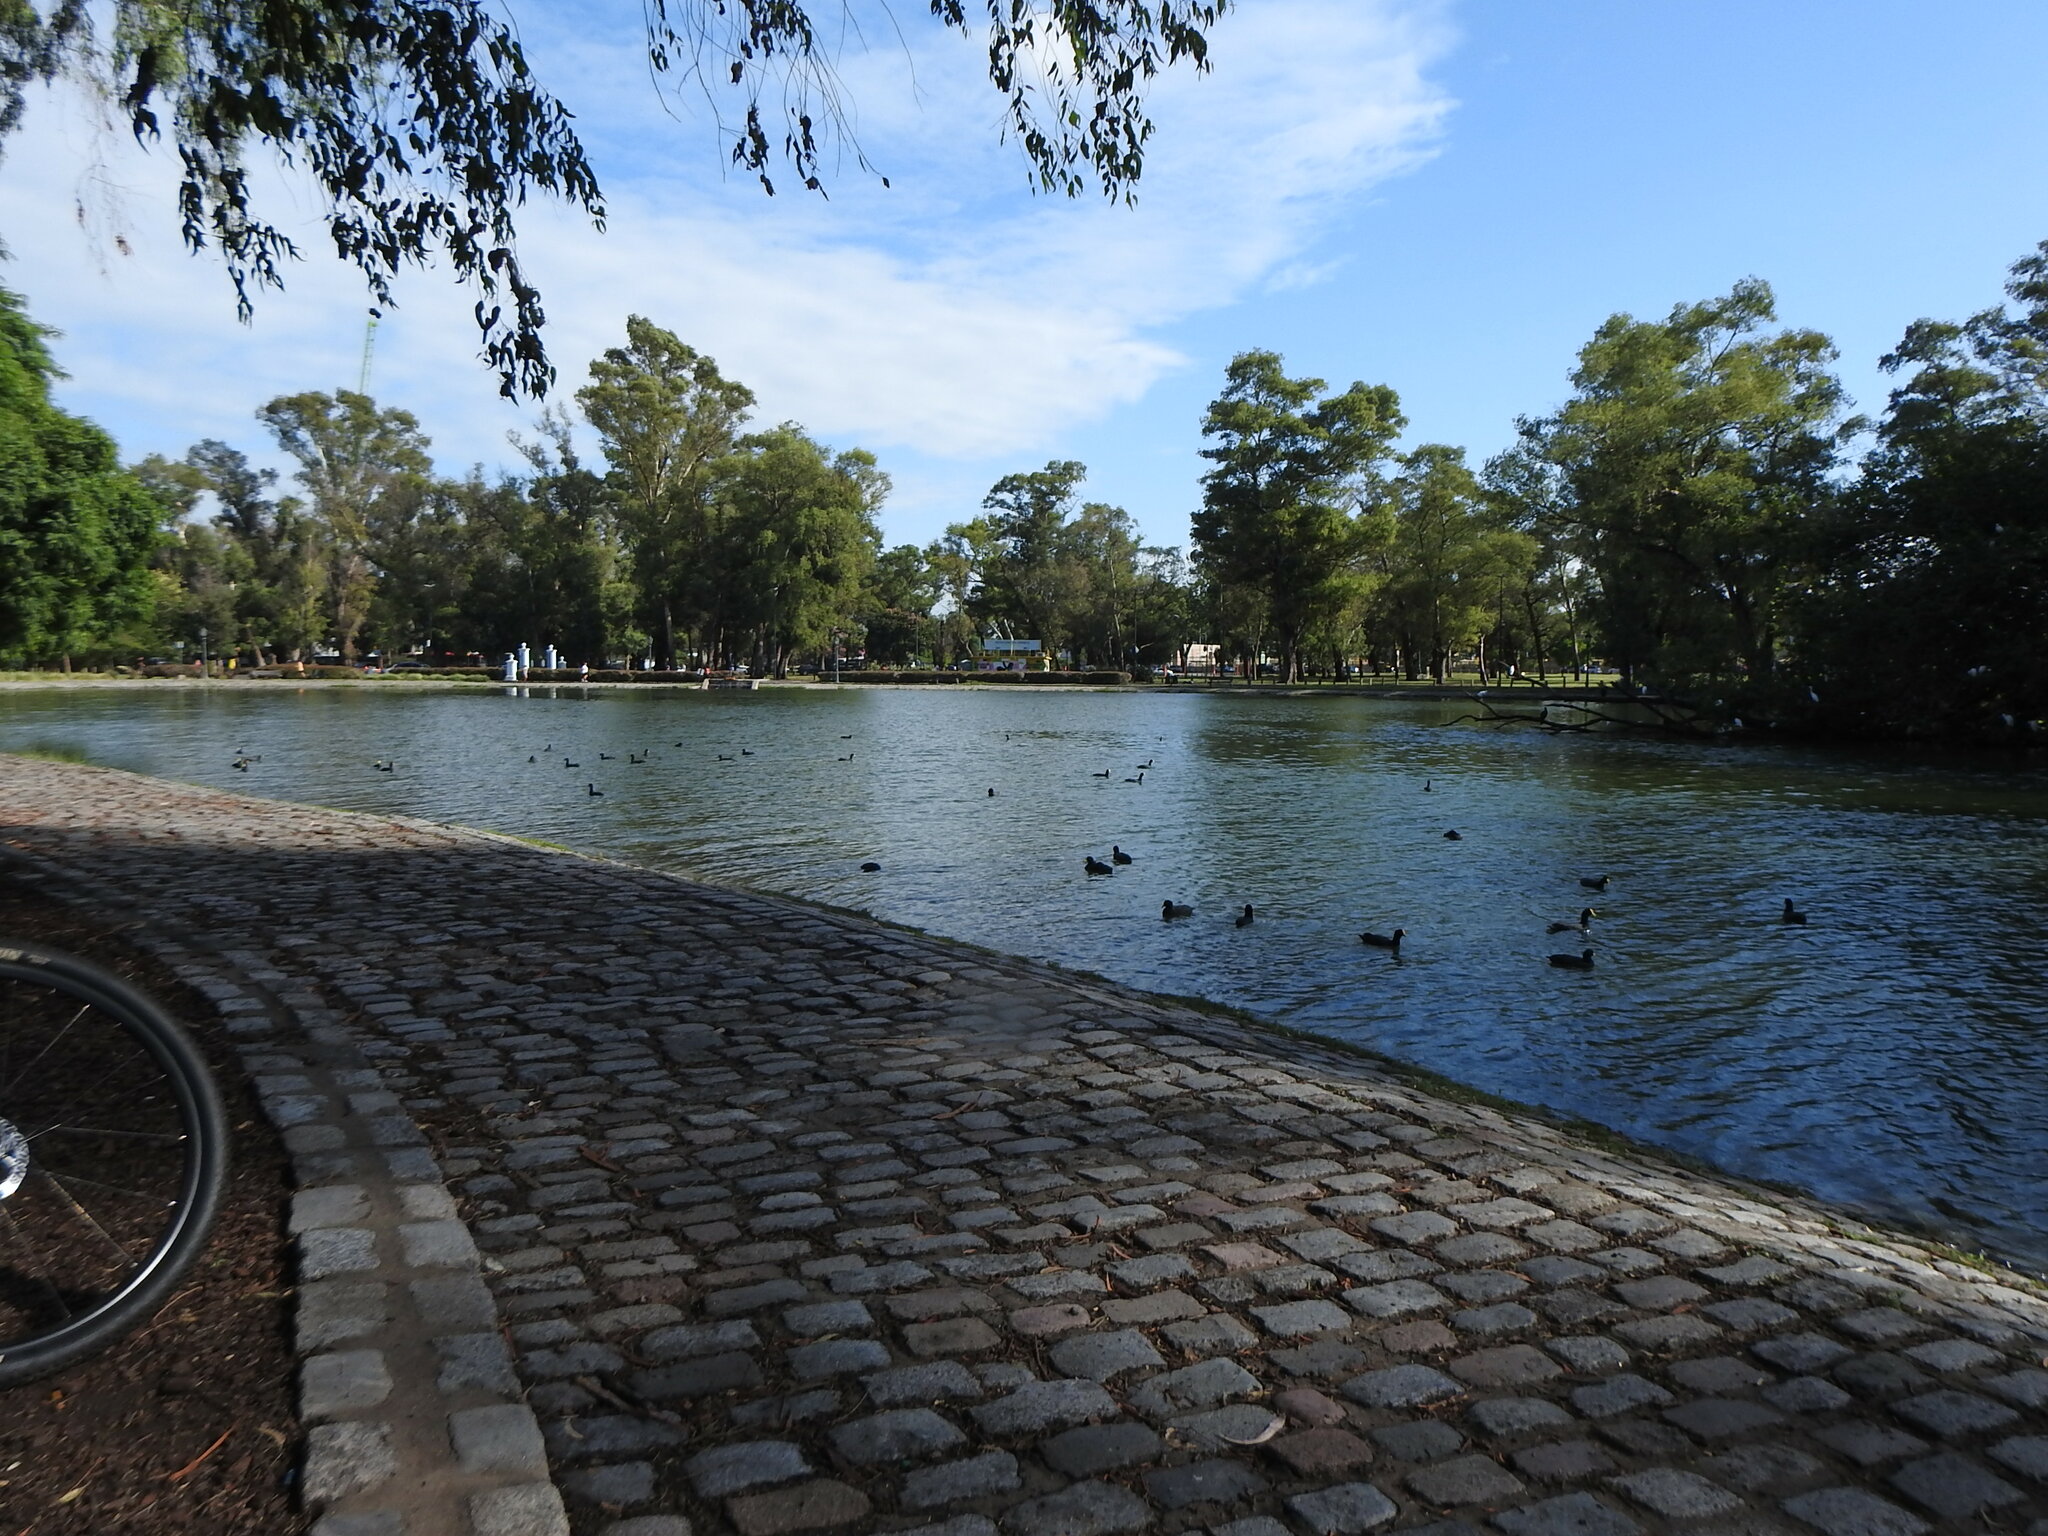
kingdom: Animalia
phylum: Chordata
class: Aves
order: Gruiformes
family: Rallidae
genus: Fulica
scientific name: Fulica leucoptera
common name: White-winged coot
